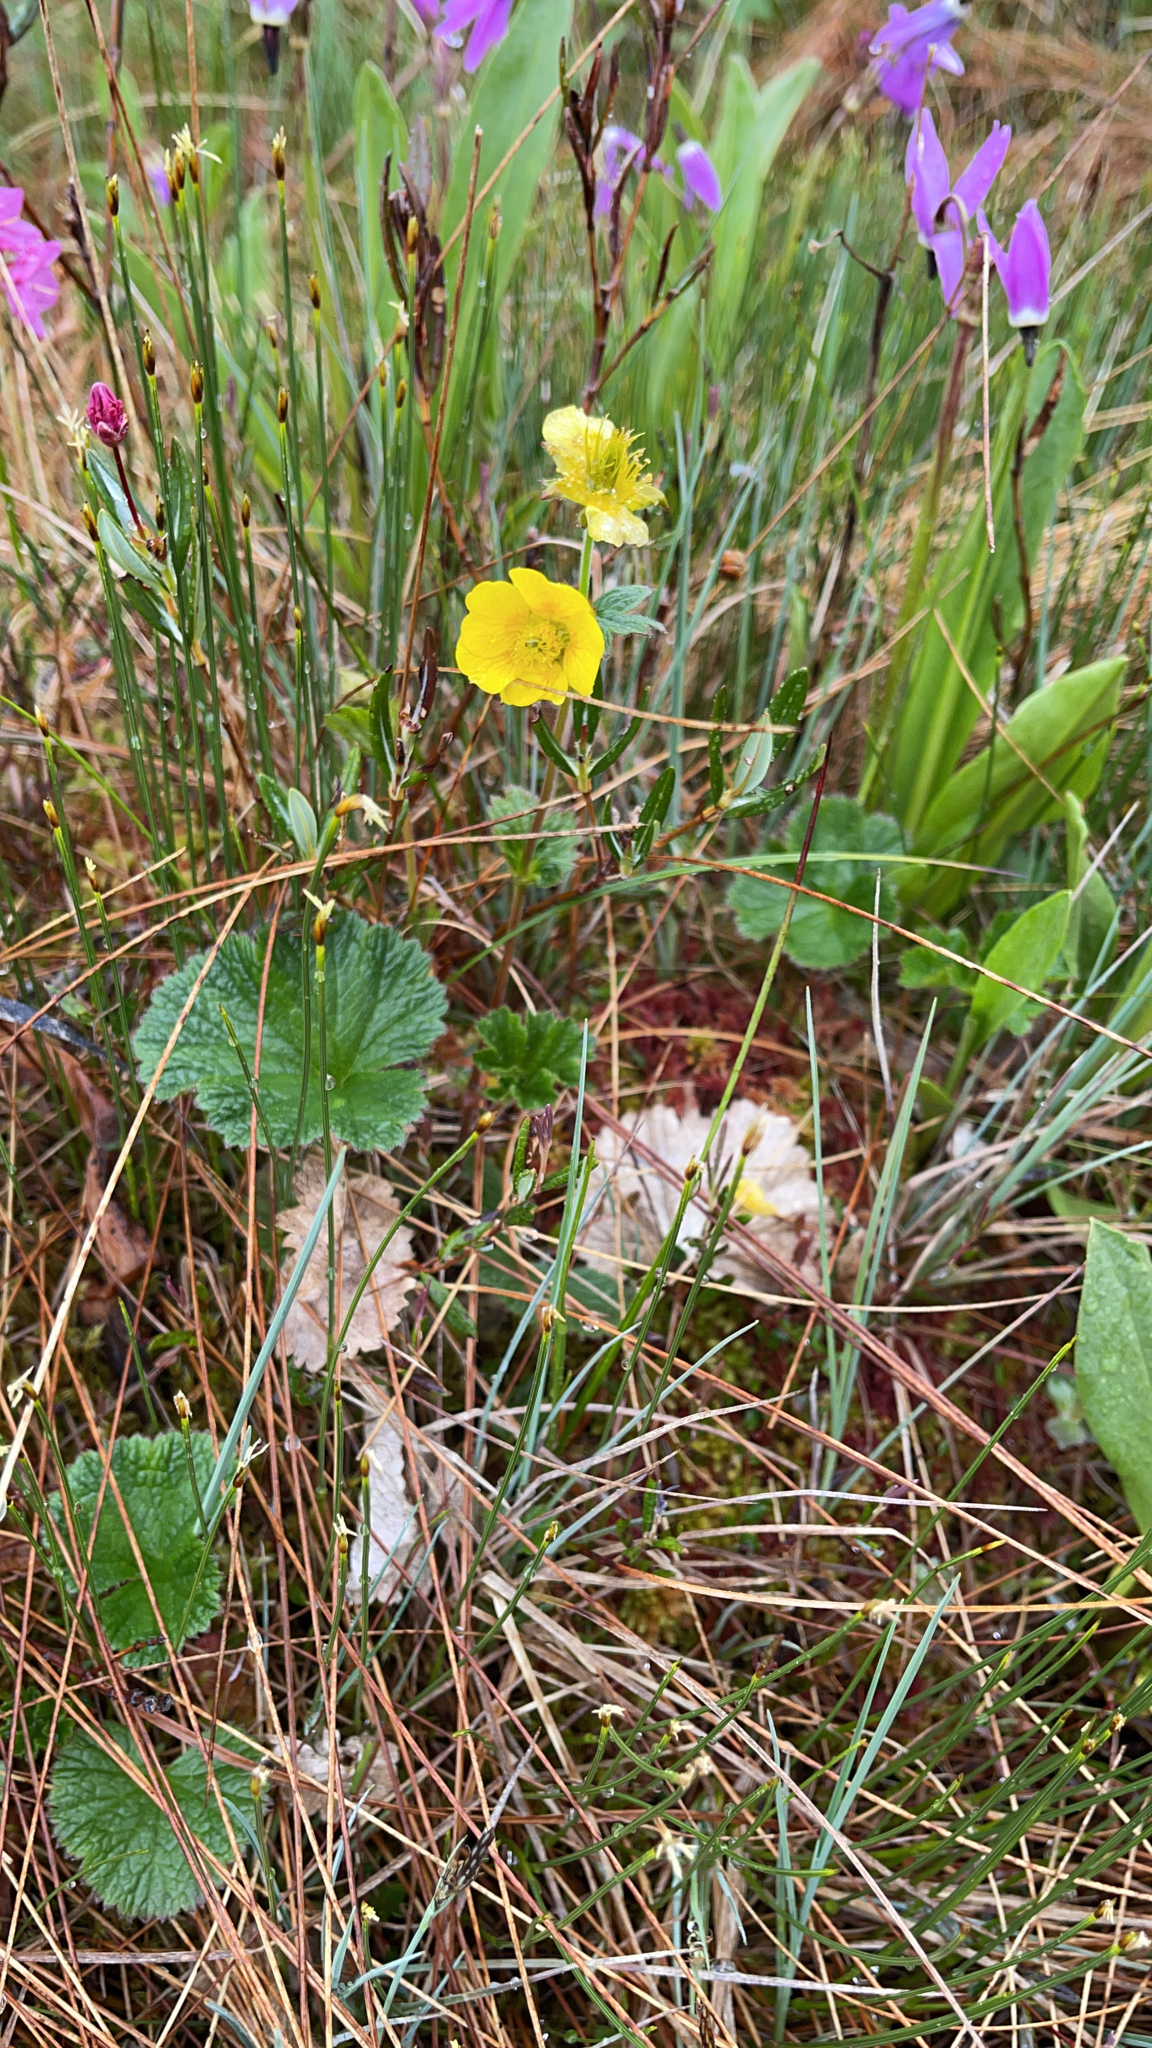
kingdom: Plantae
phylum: Tracheophyta
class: Magnoliopsida
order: Rosales
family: Rosaceae
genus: Geum
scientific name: Geum calthifolium
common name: Caltha-leaved avens
